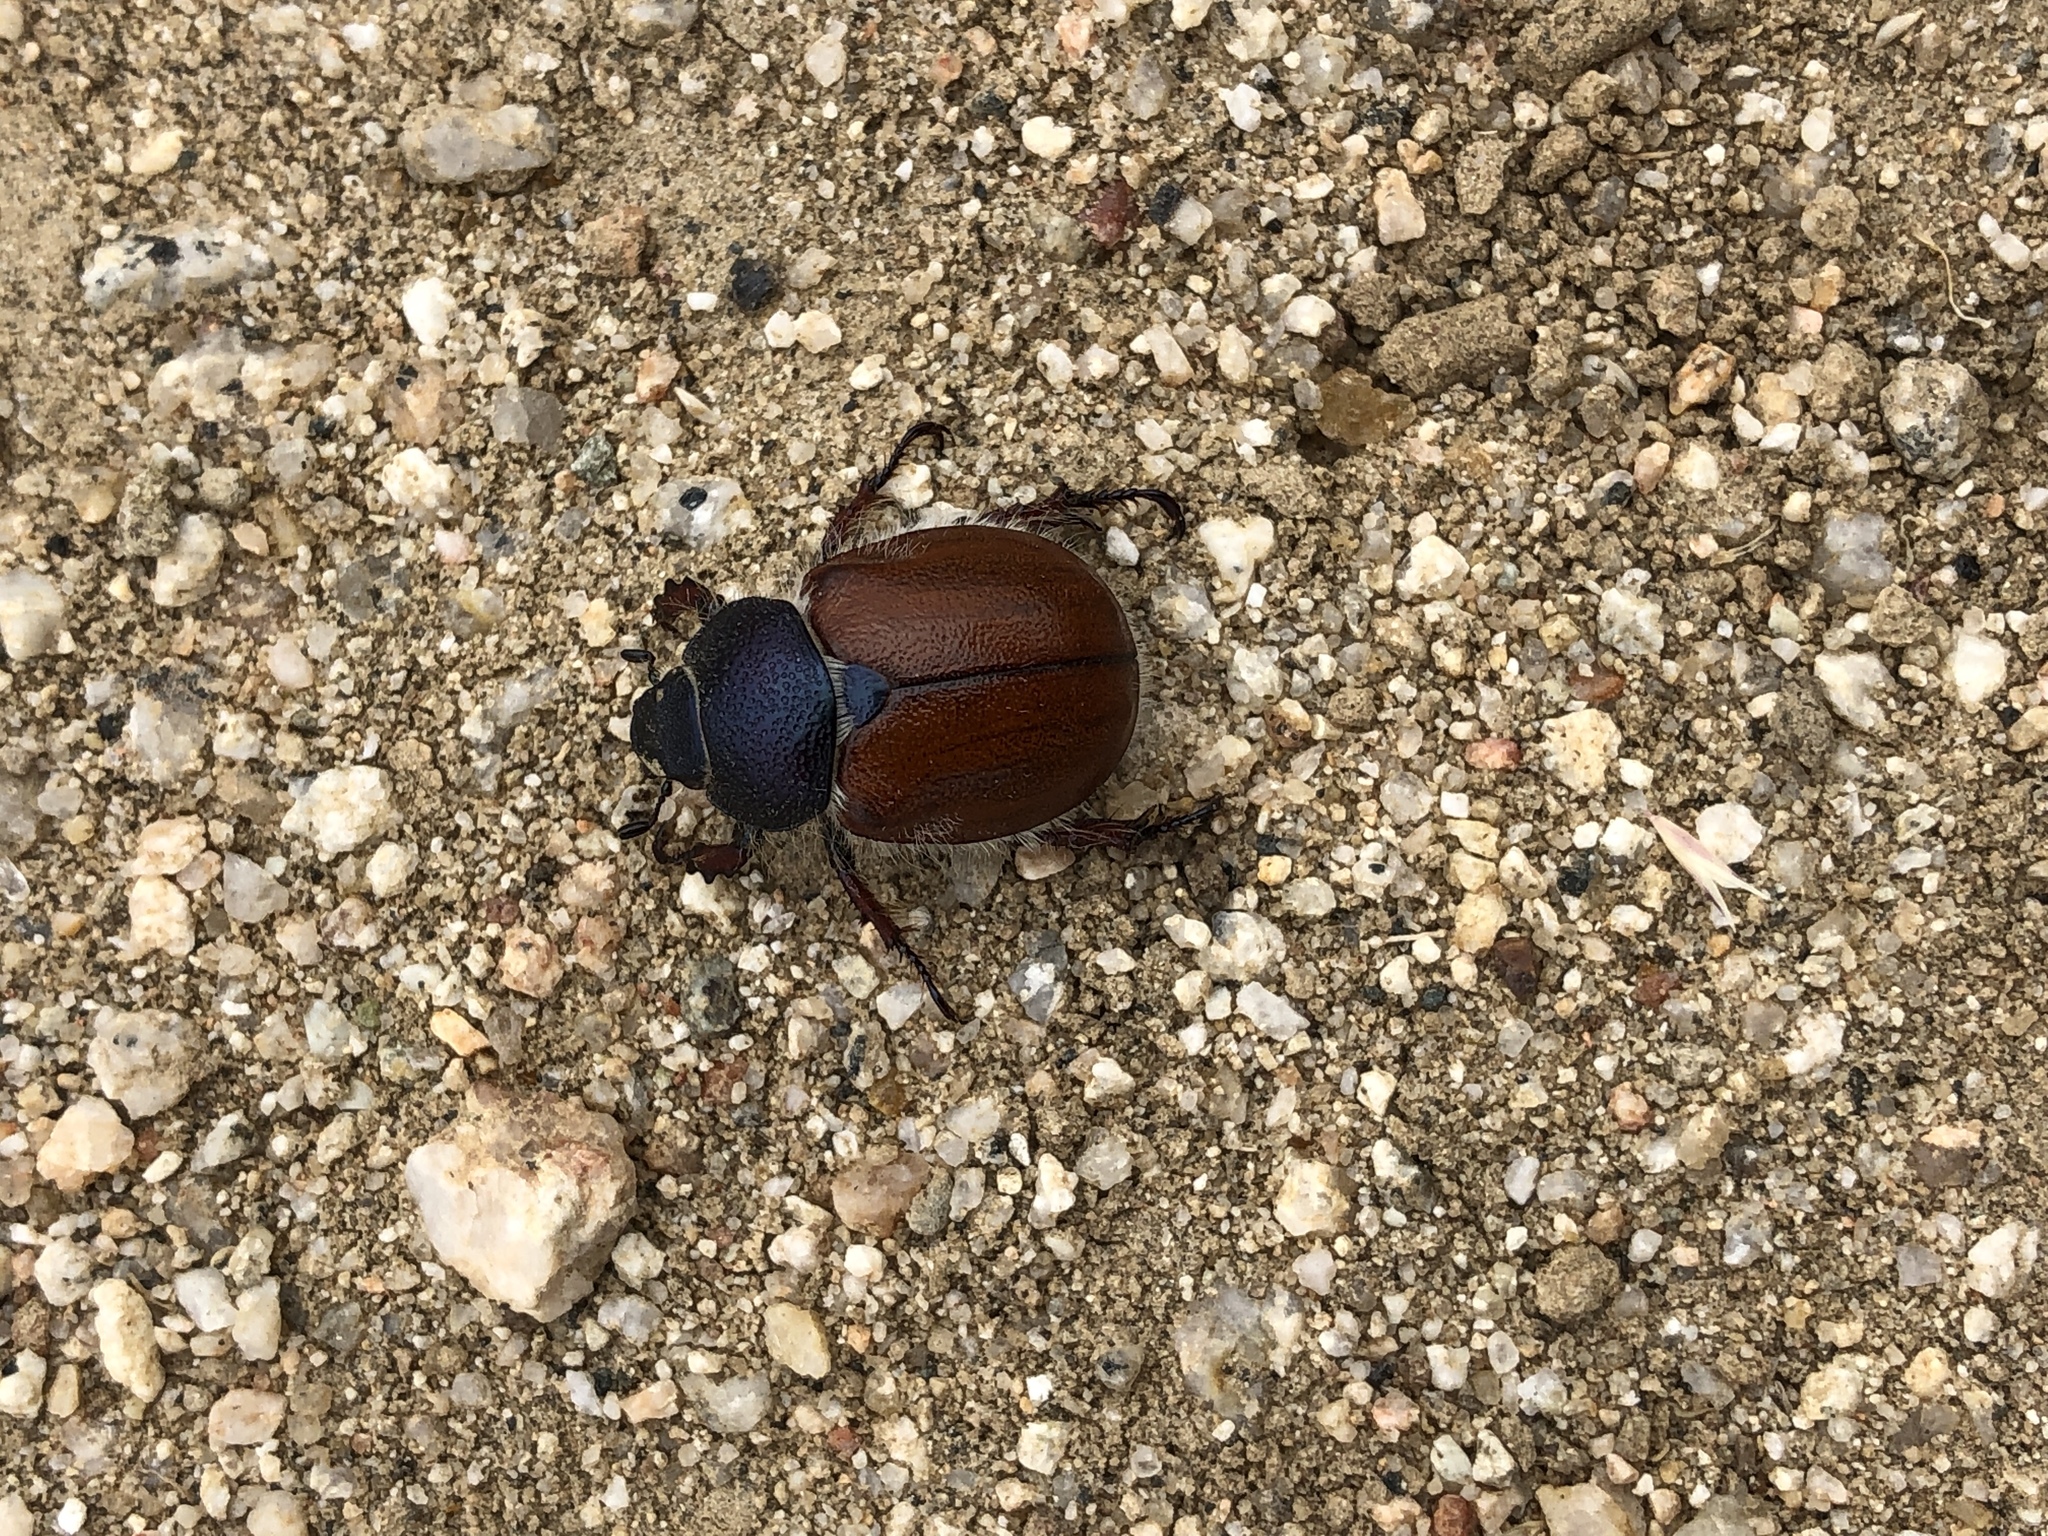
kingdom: Animalia
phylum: Arthropoda
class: Insecta
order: Coleoptera
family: Scarabaeidae
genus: Paracotalpa
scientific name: Paracotalpa ursina
